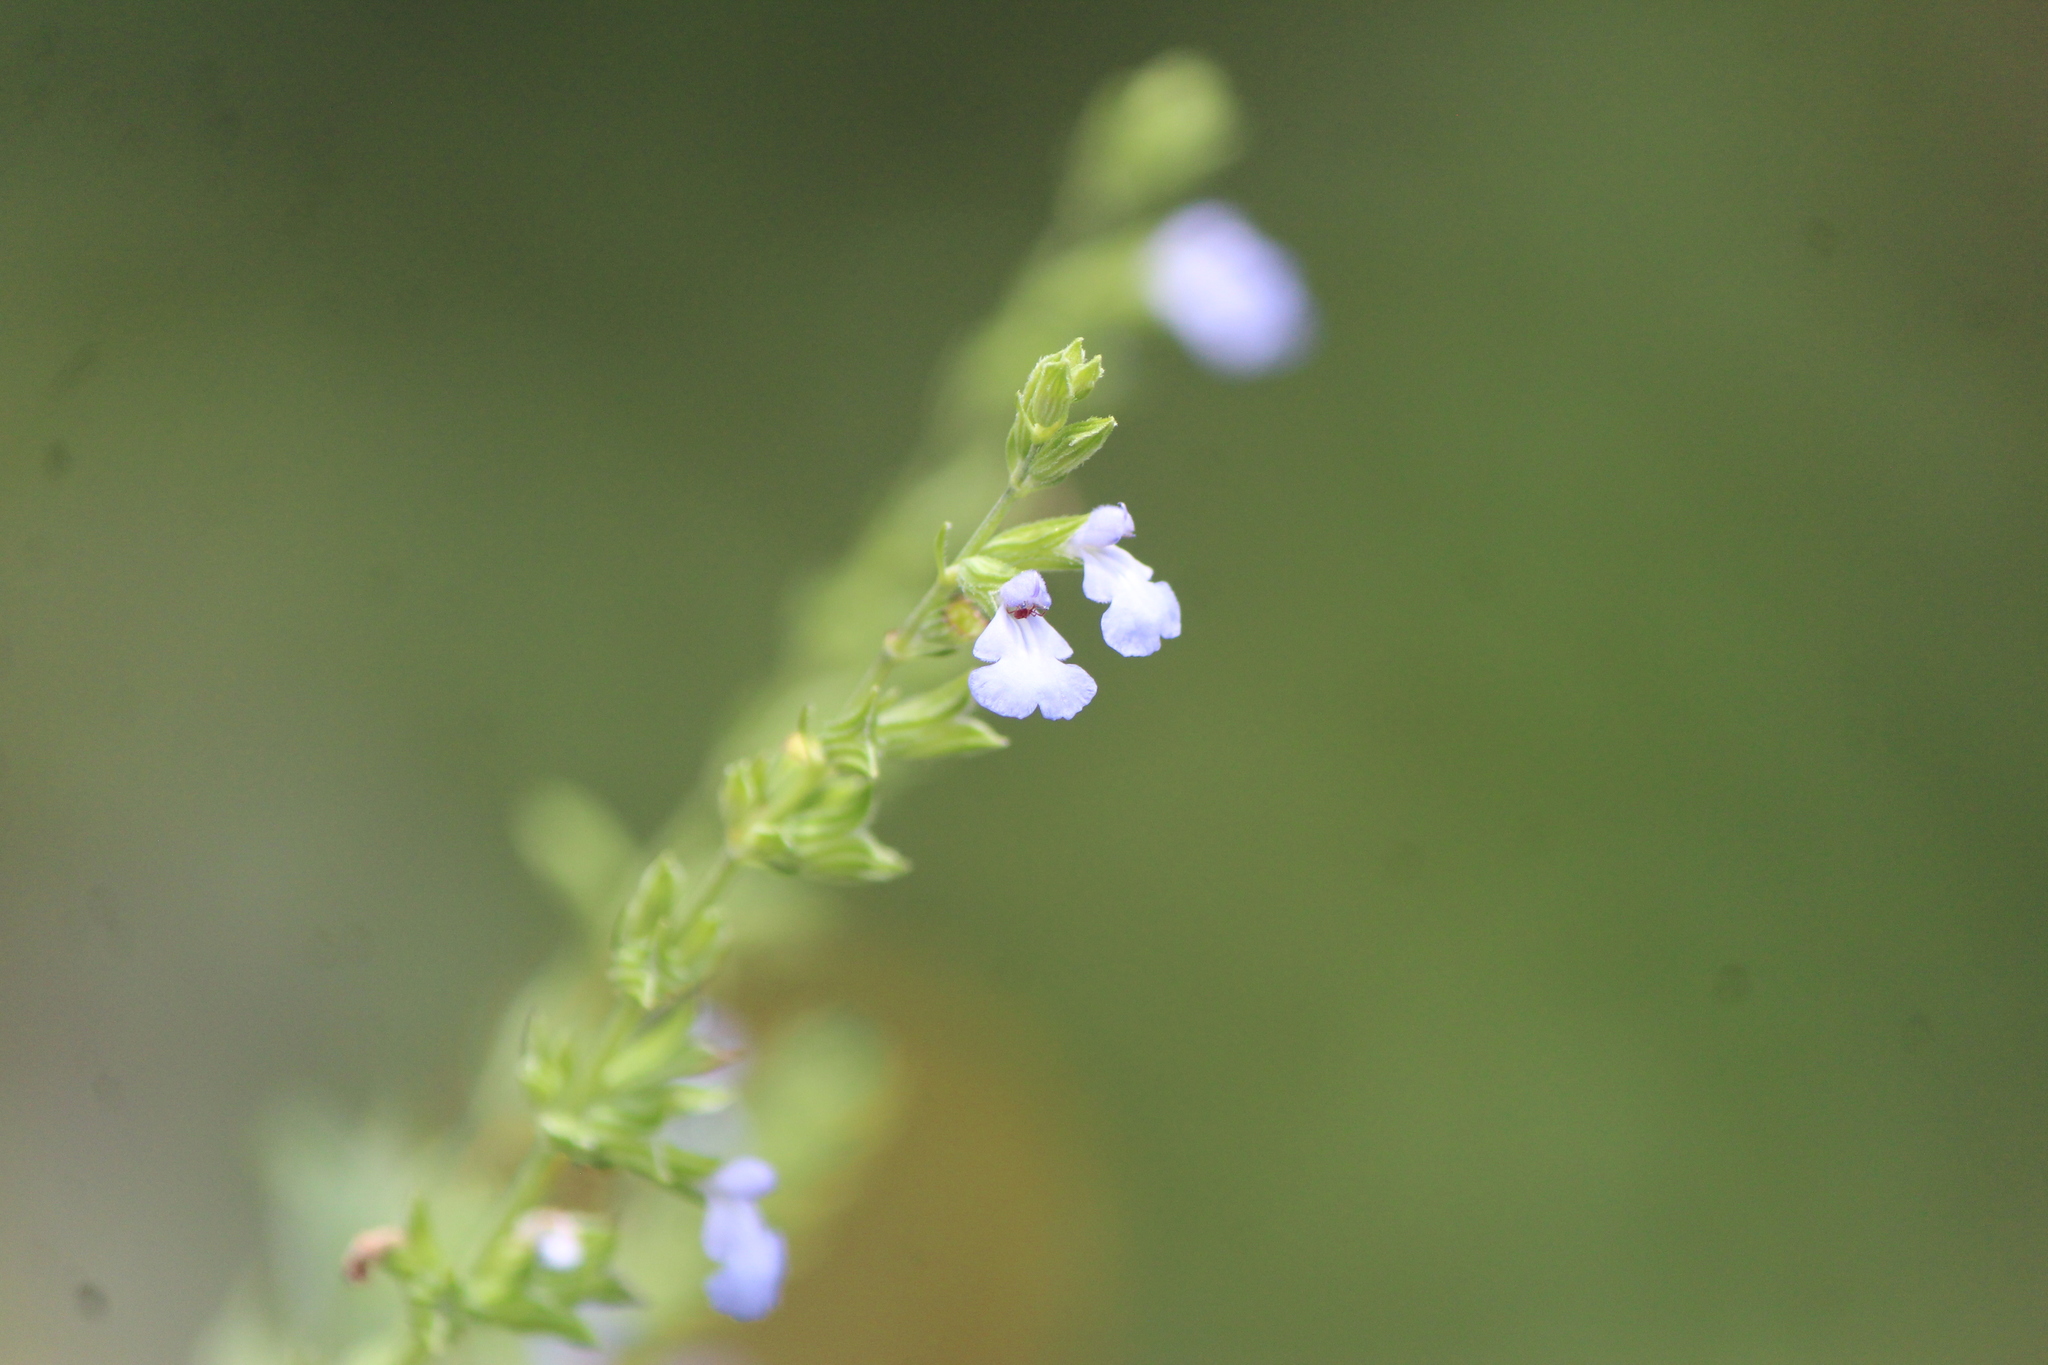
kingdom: Plantae
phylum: Tracheophyta
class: Magnoliopsida
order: Lamiales
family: Lamiaceae
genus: Salvia
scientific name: Salvia reflexa
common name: Mintweed
